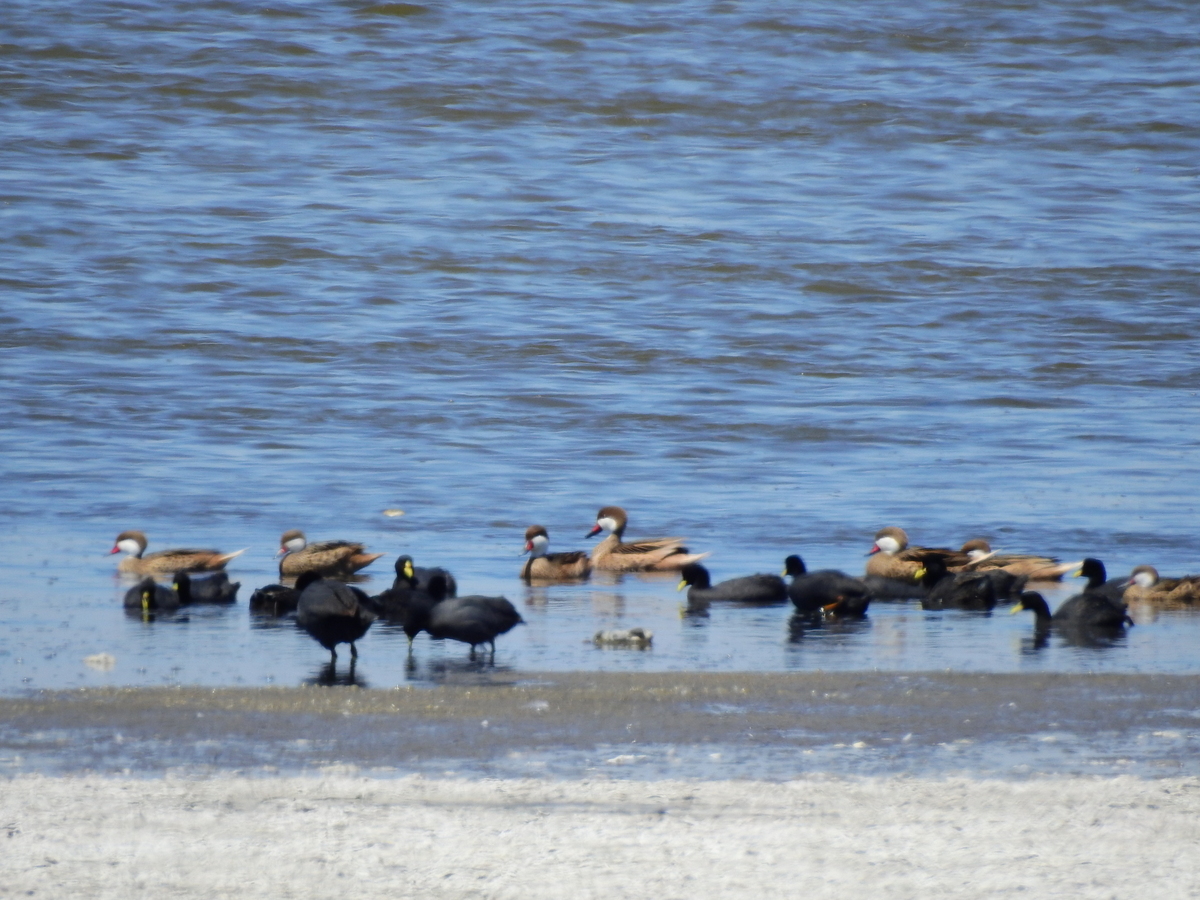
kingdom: Animalia
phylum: Chordata
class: Aves
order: Anseriformes
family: Anatidae
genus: Anas
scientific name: Anas bahamensis
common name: White-cheeked pintail
